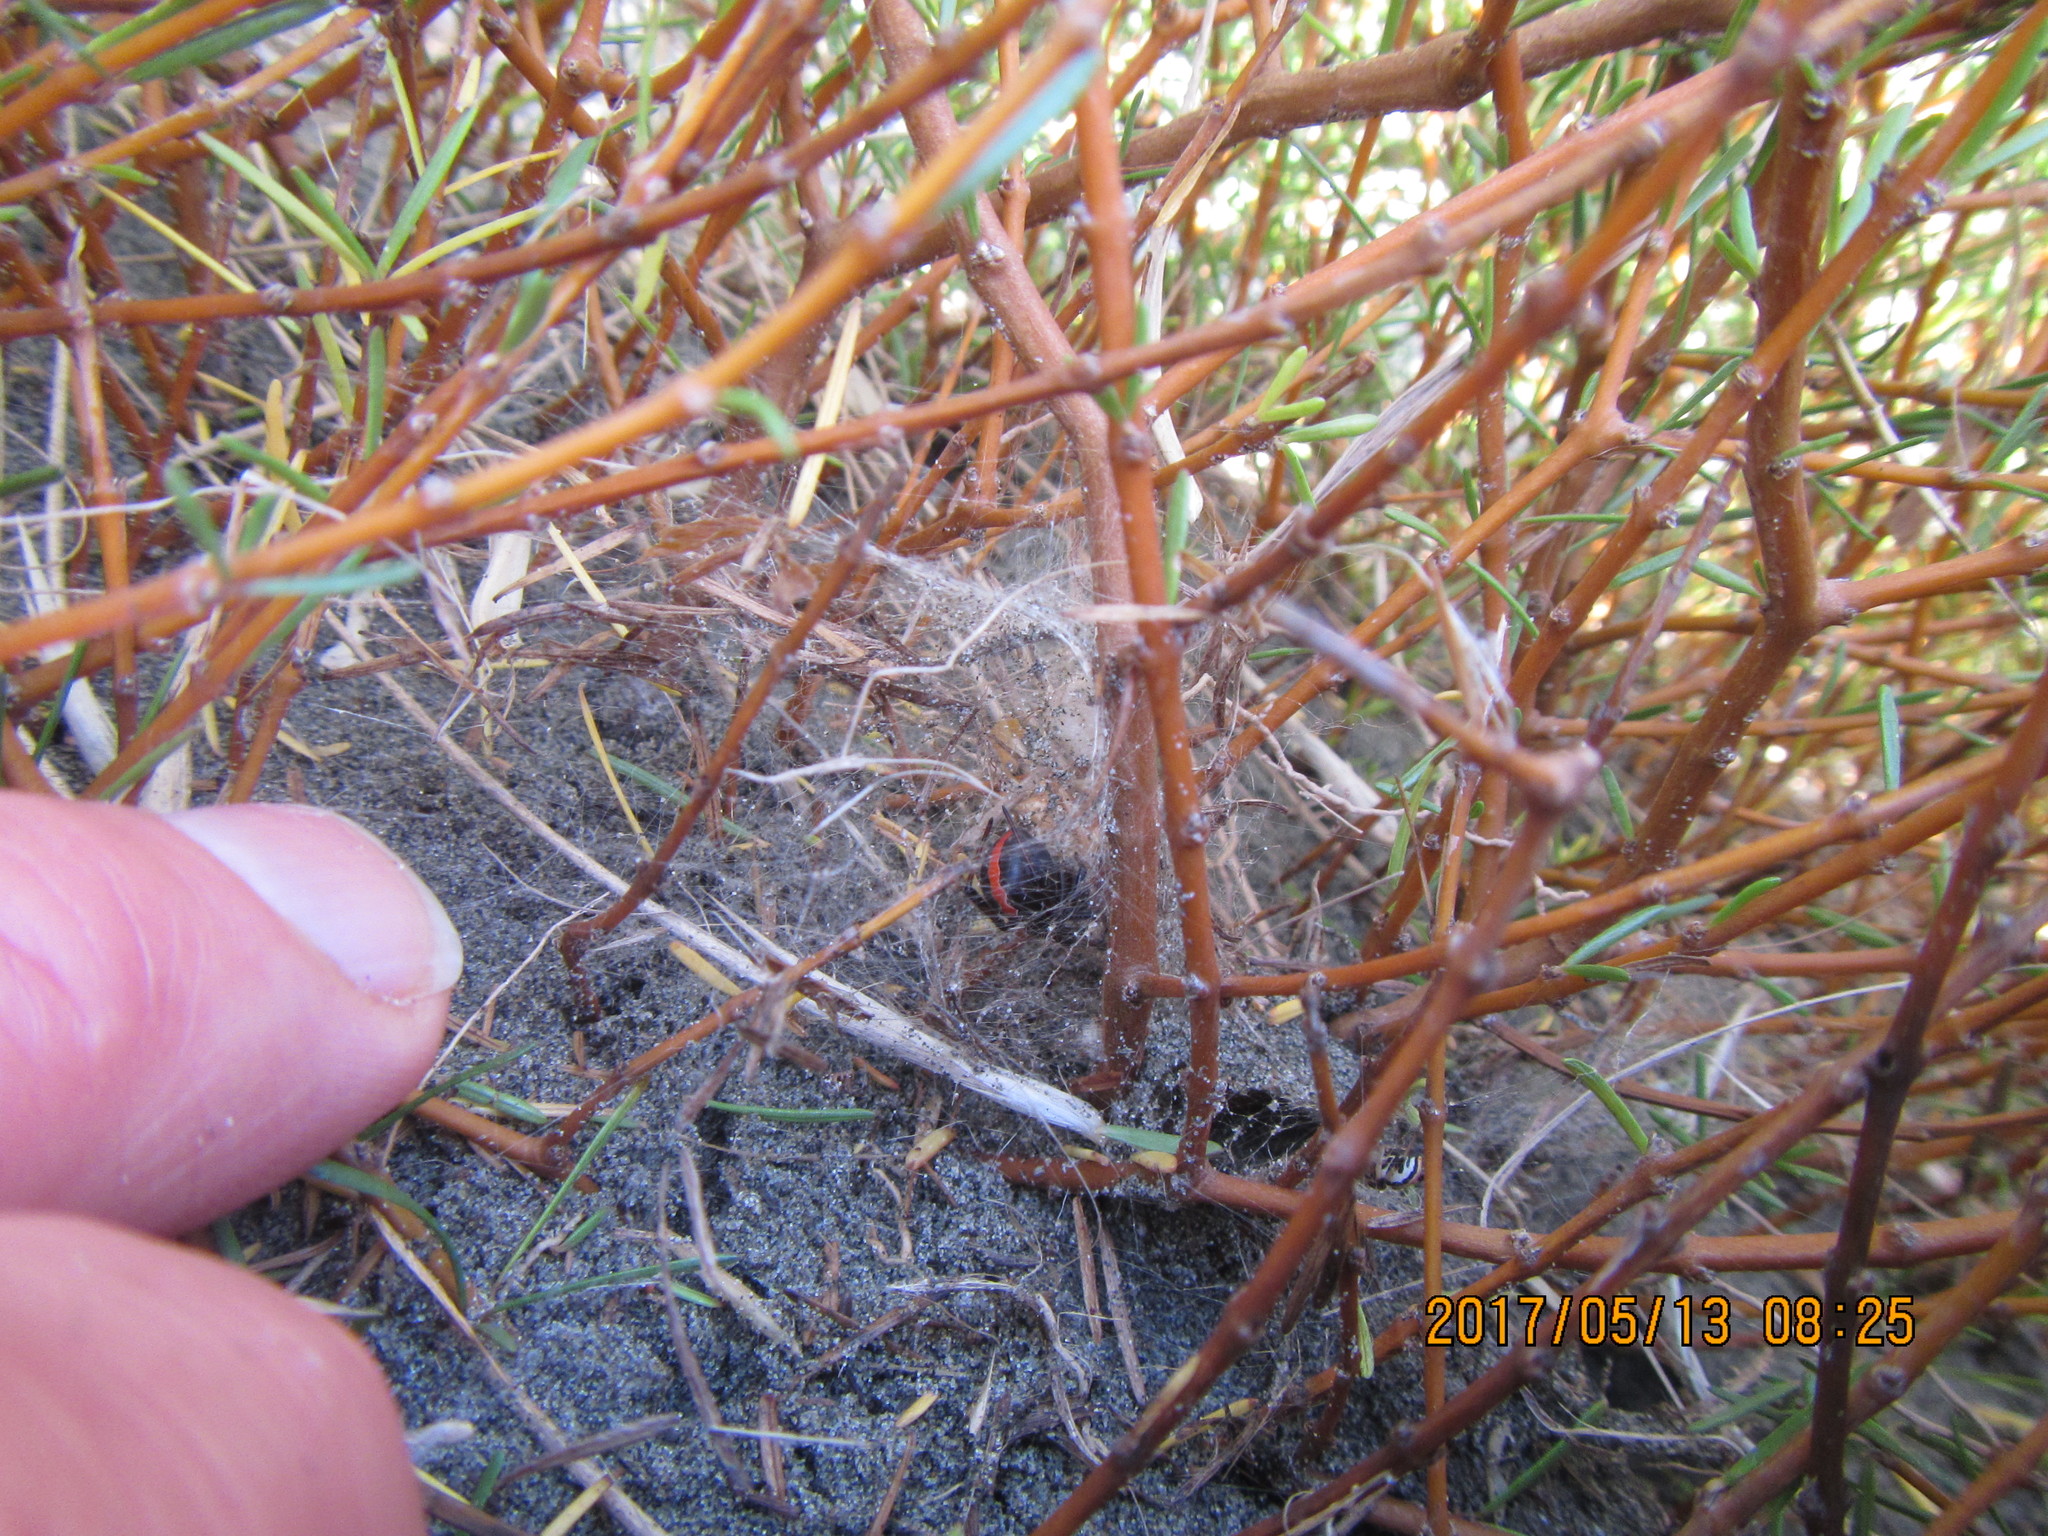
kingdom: Plantae
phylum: Tracheophyta
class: Magnoliopsida
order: Gentianales
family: Rubiaceae
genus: Coprosma
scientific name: Coprosma acerosa
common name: Sand coprosma
